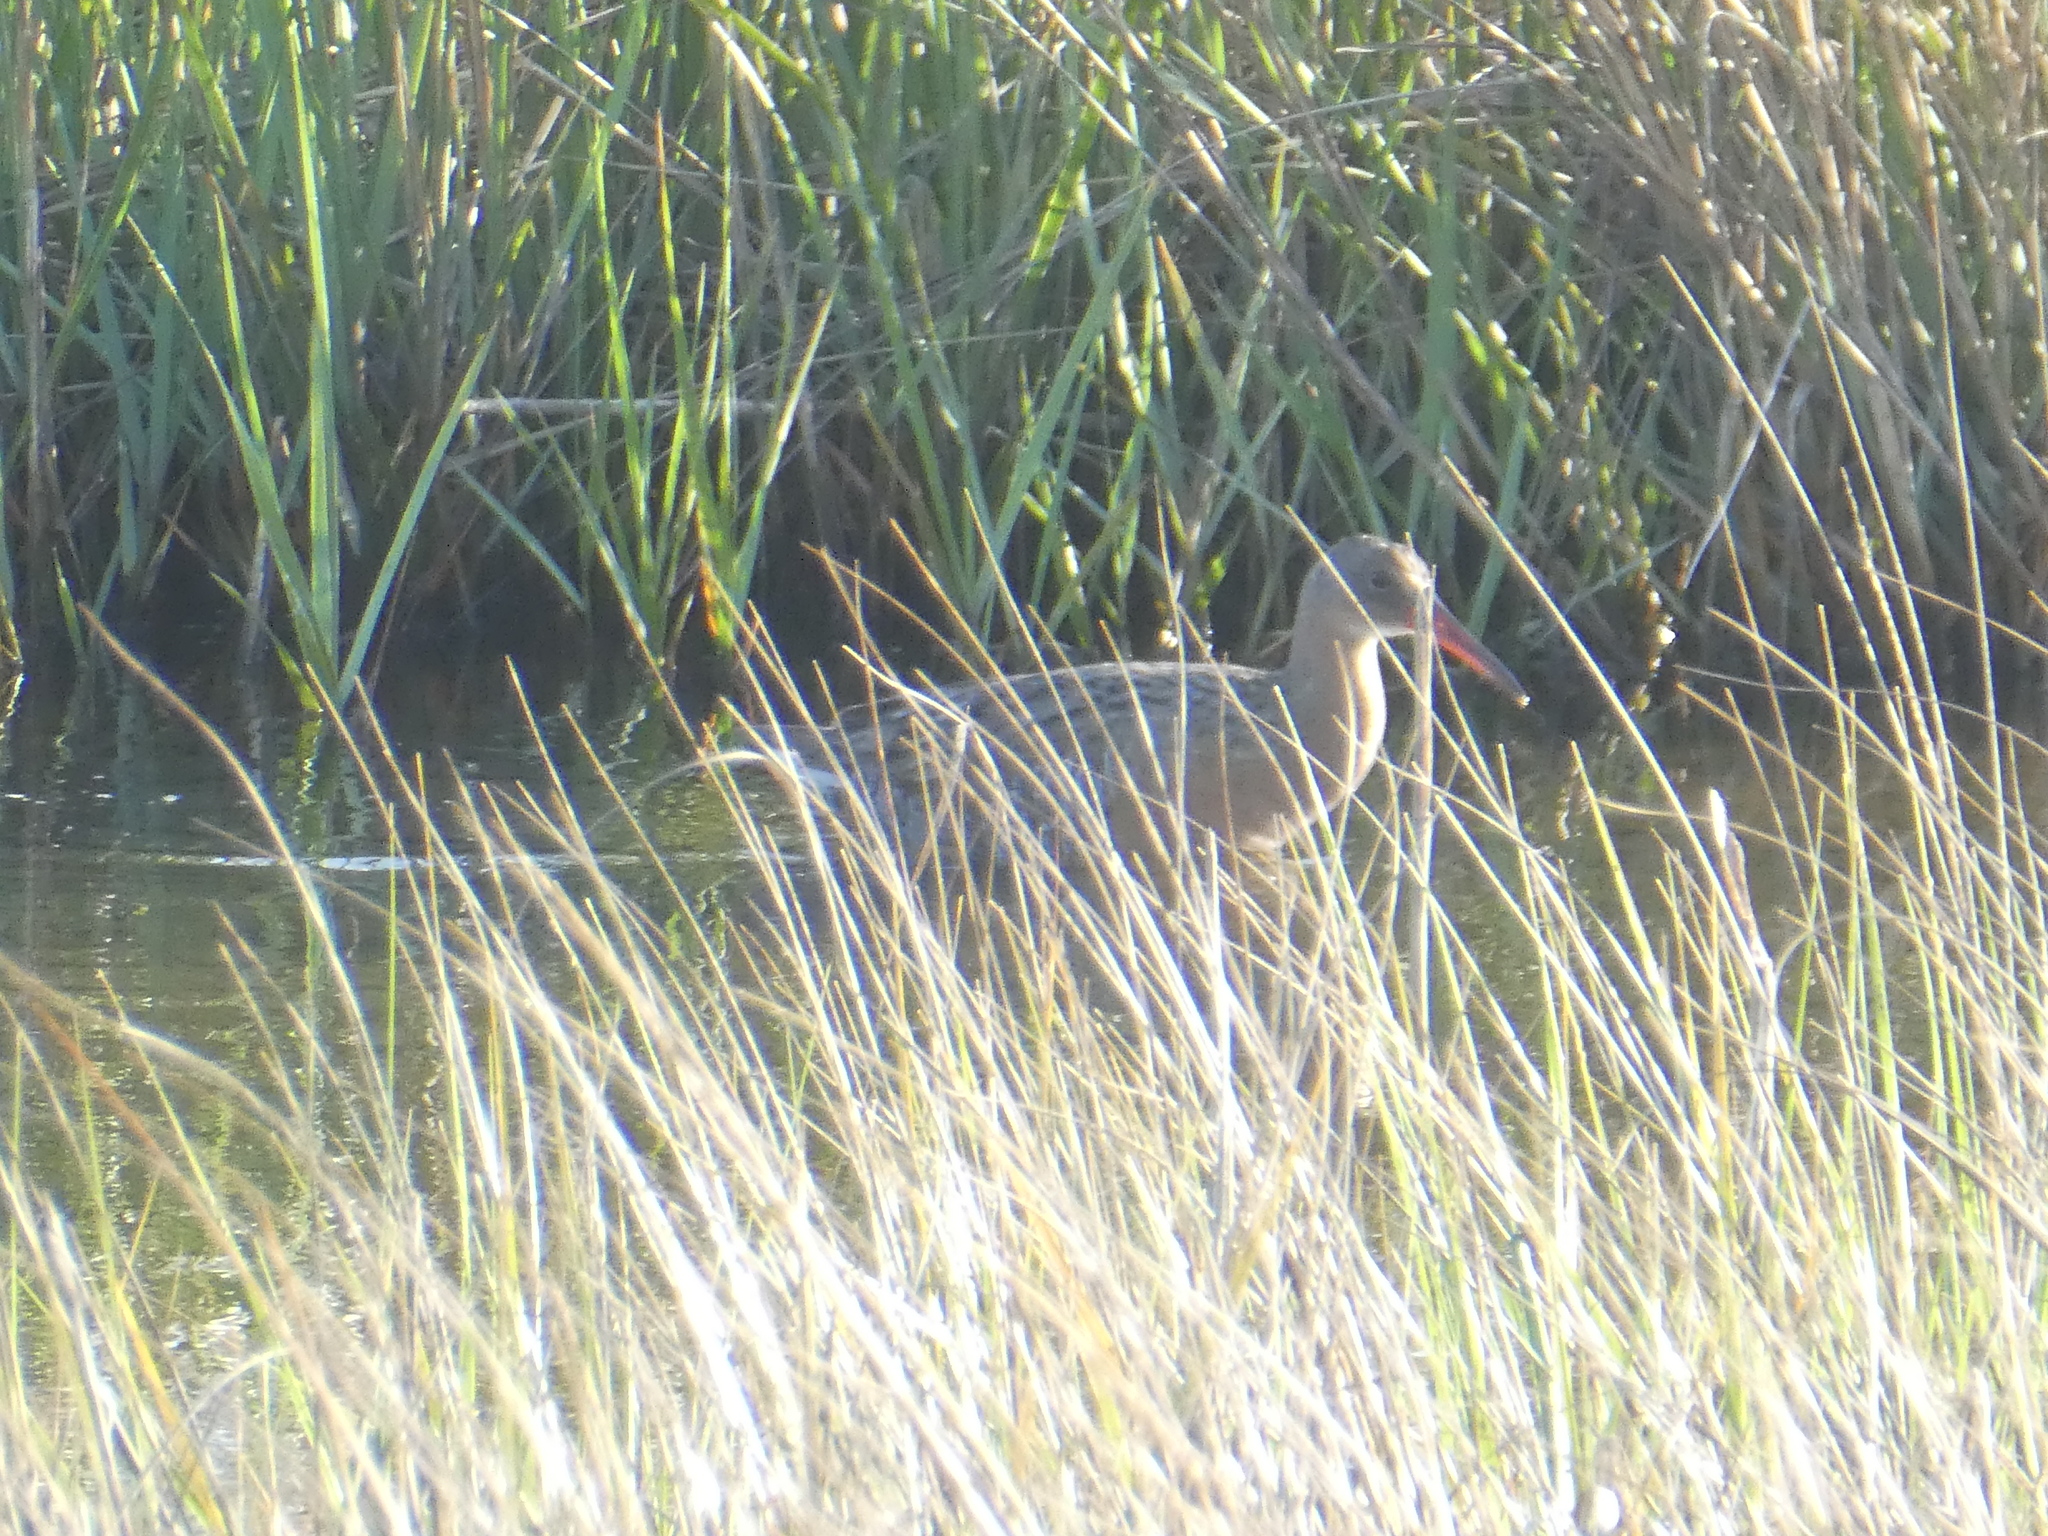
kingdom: Animalia
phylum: Chordata
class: Aves
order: Gruiformes
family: Rallidae
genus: Rallus
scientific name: Rallus obsoletus
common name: Ridgway's rail
